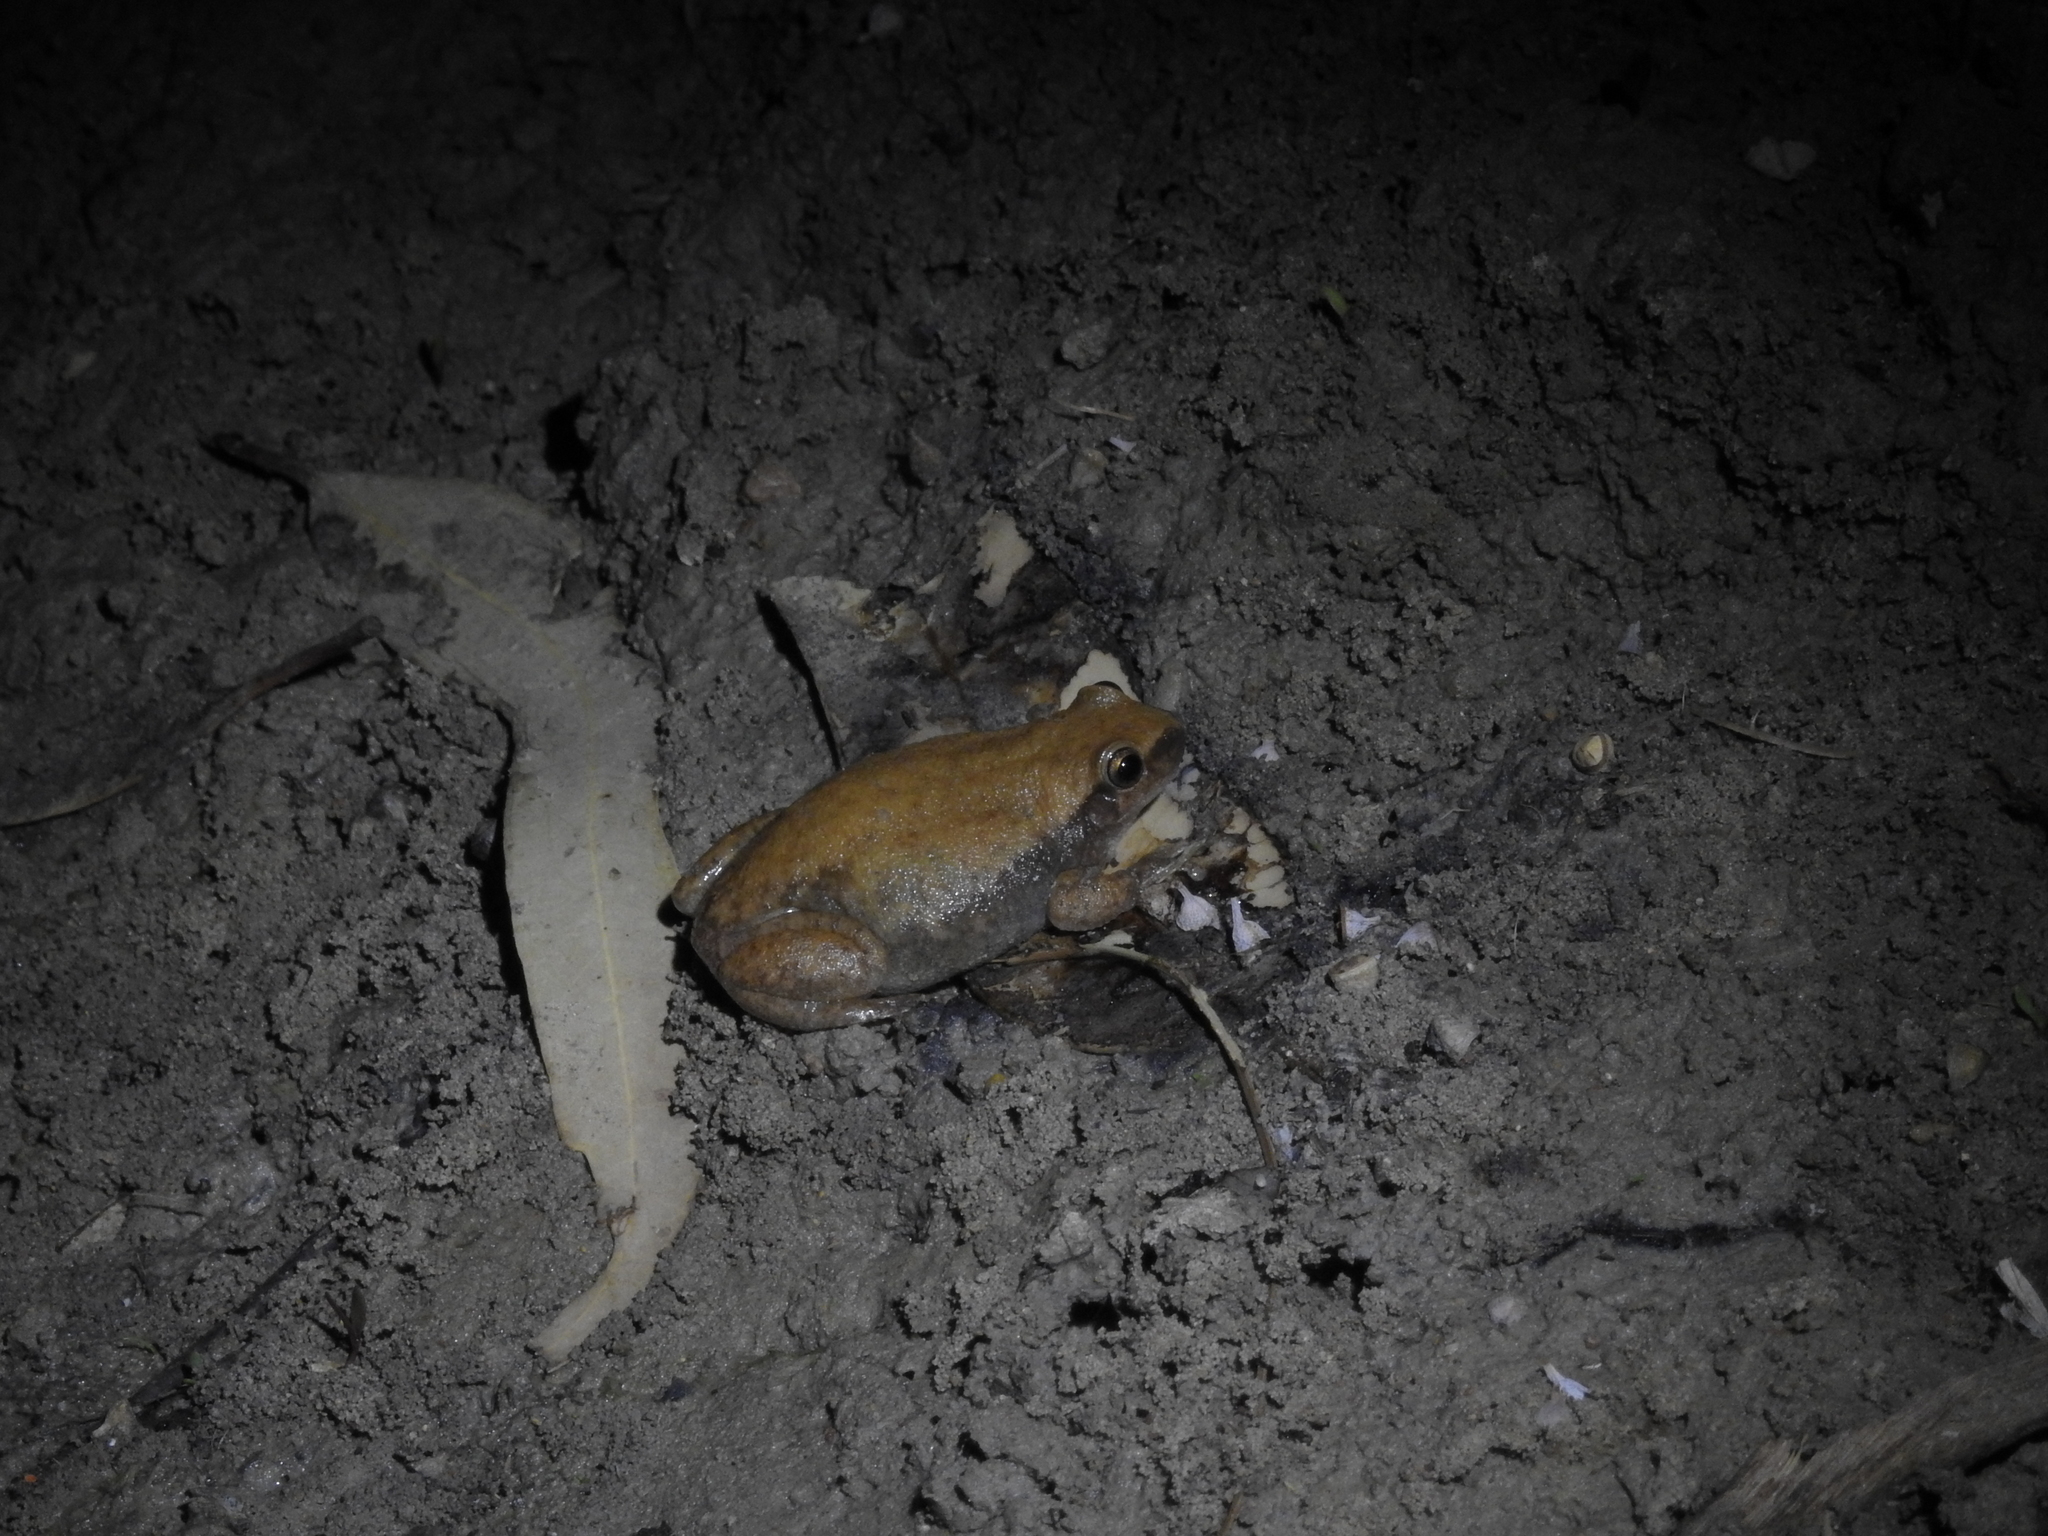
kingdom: Animalia
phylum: Chordata
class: Amphibia
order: Anura
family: Pelodryadidae
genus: Litoria
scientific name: Litoria rubella
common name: Desert tree frog
